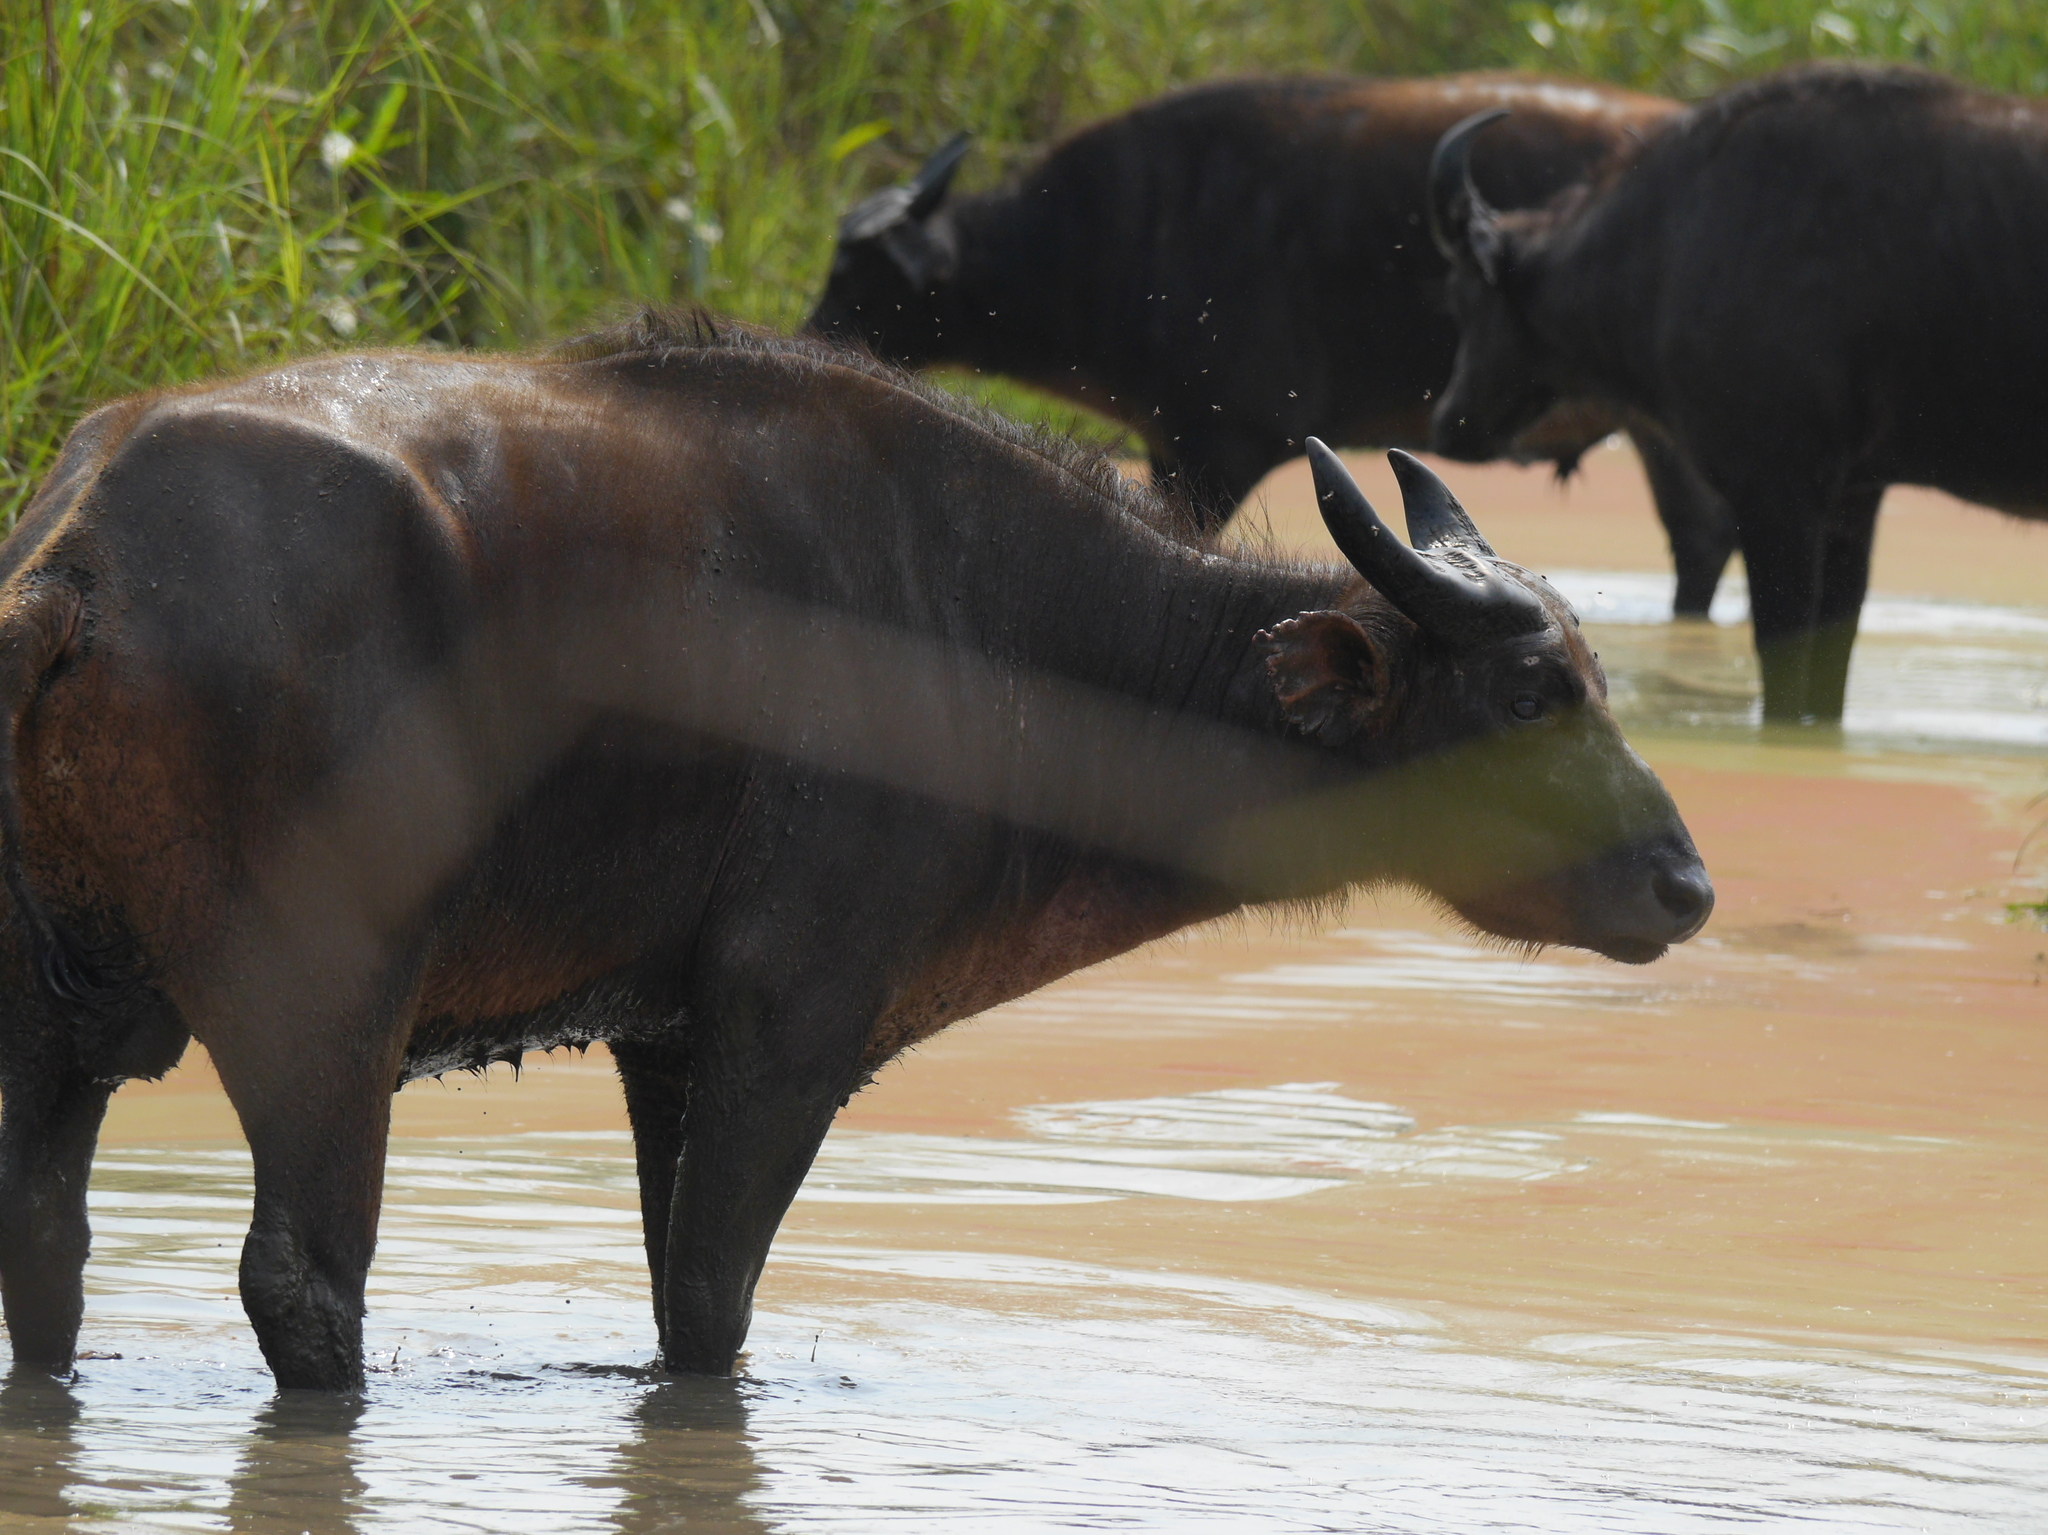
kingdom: Animalia
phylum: Chordata
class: Mammalia
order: Artiodactyla
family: Bovidae
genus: Syncerus
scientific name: Syncerus caffer
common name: African buffalo
